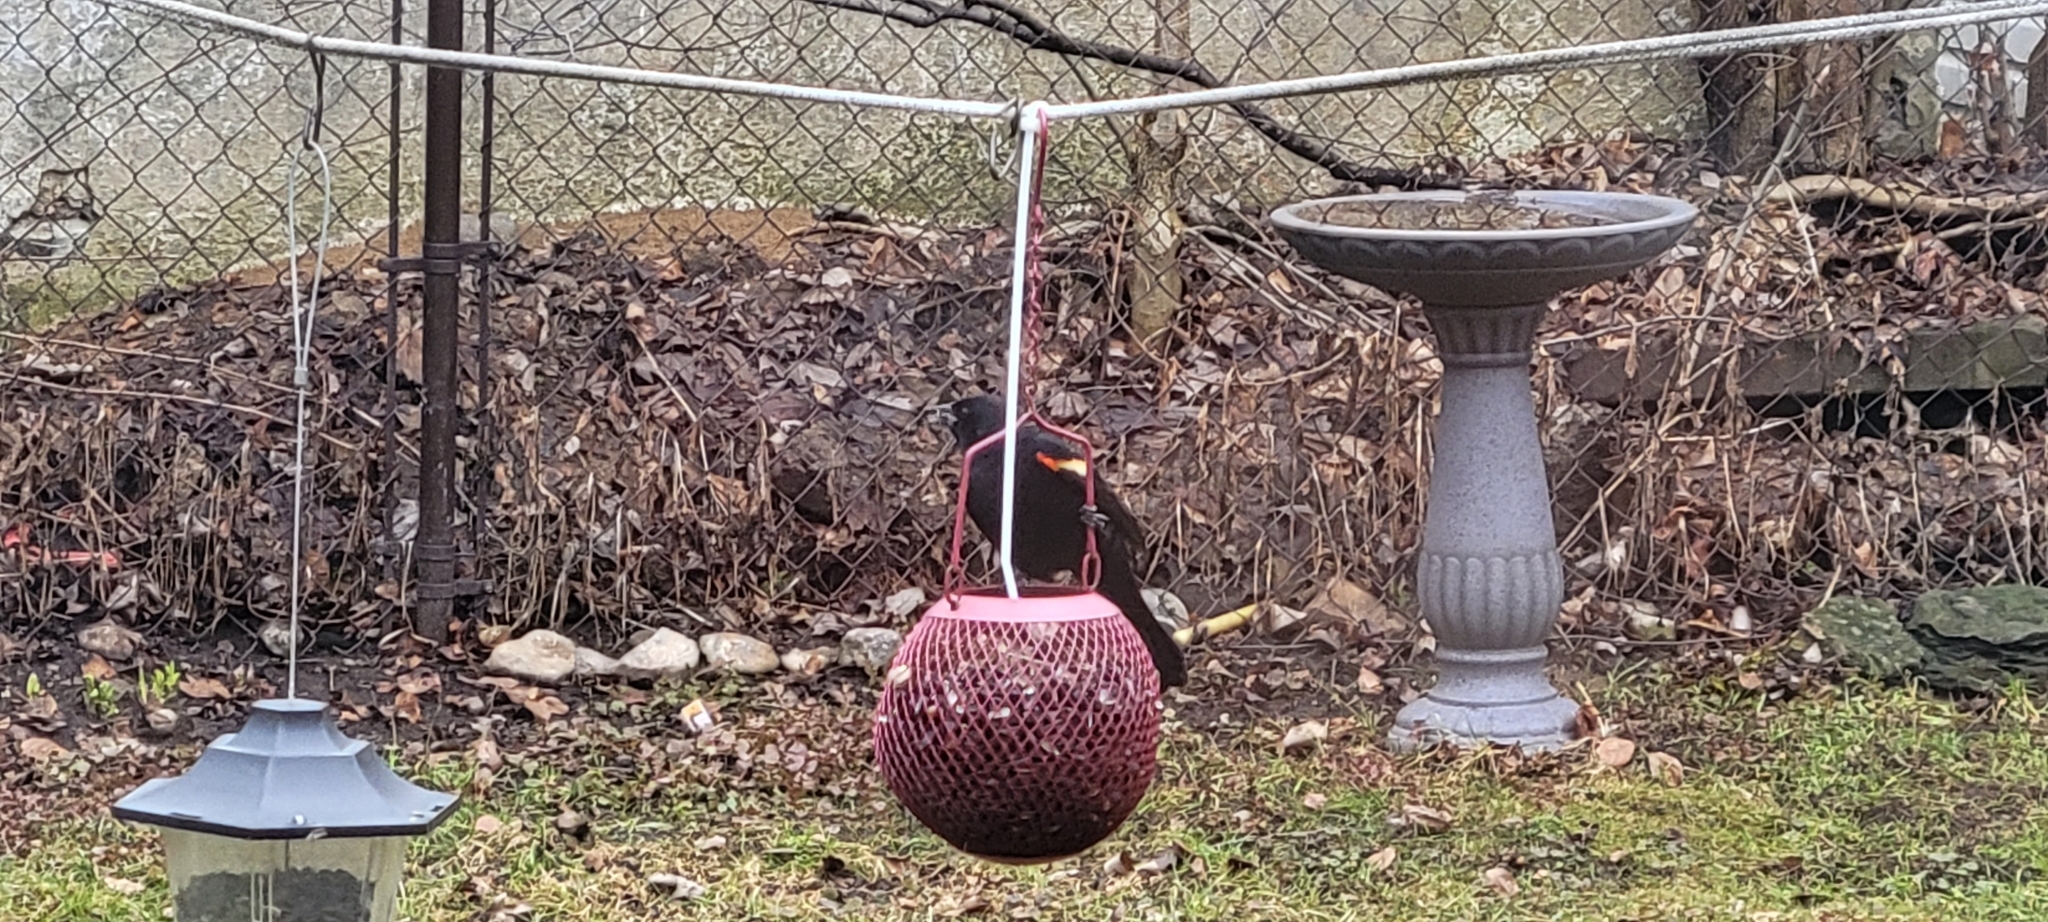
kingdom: Animalia
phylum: Chordata
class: Aves
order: Passeriformes
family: Icteridae
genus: Agelaius
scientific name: Agelaius phoeniceus
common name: Red-winged blackbird
